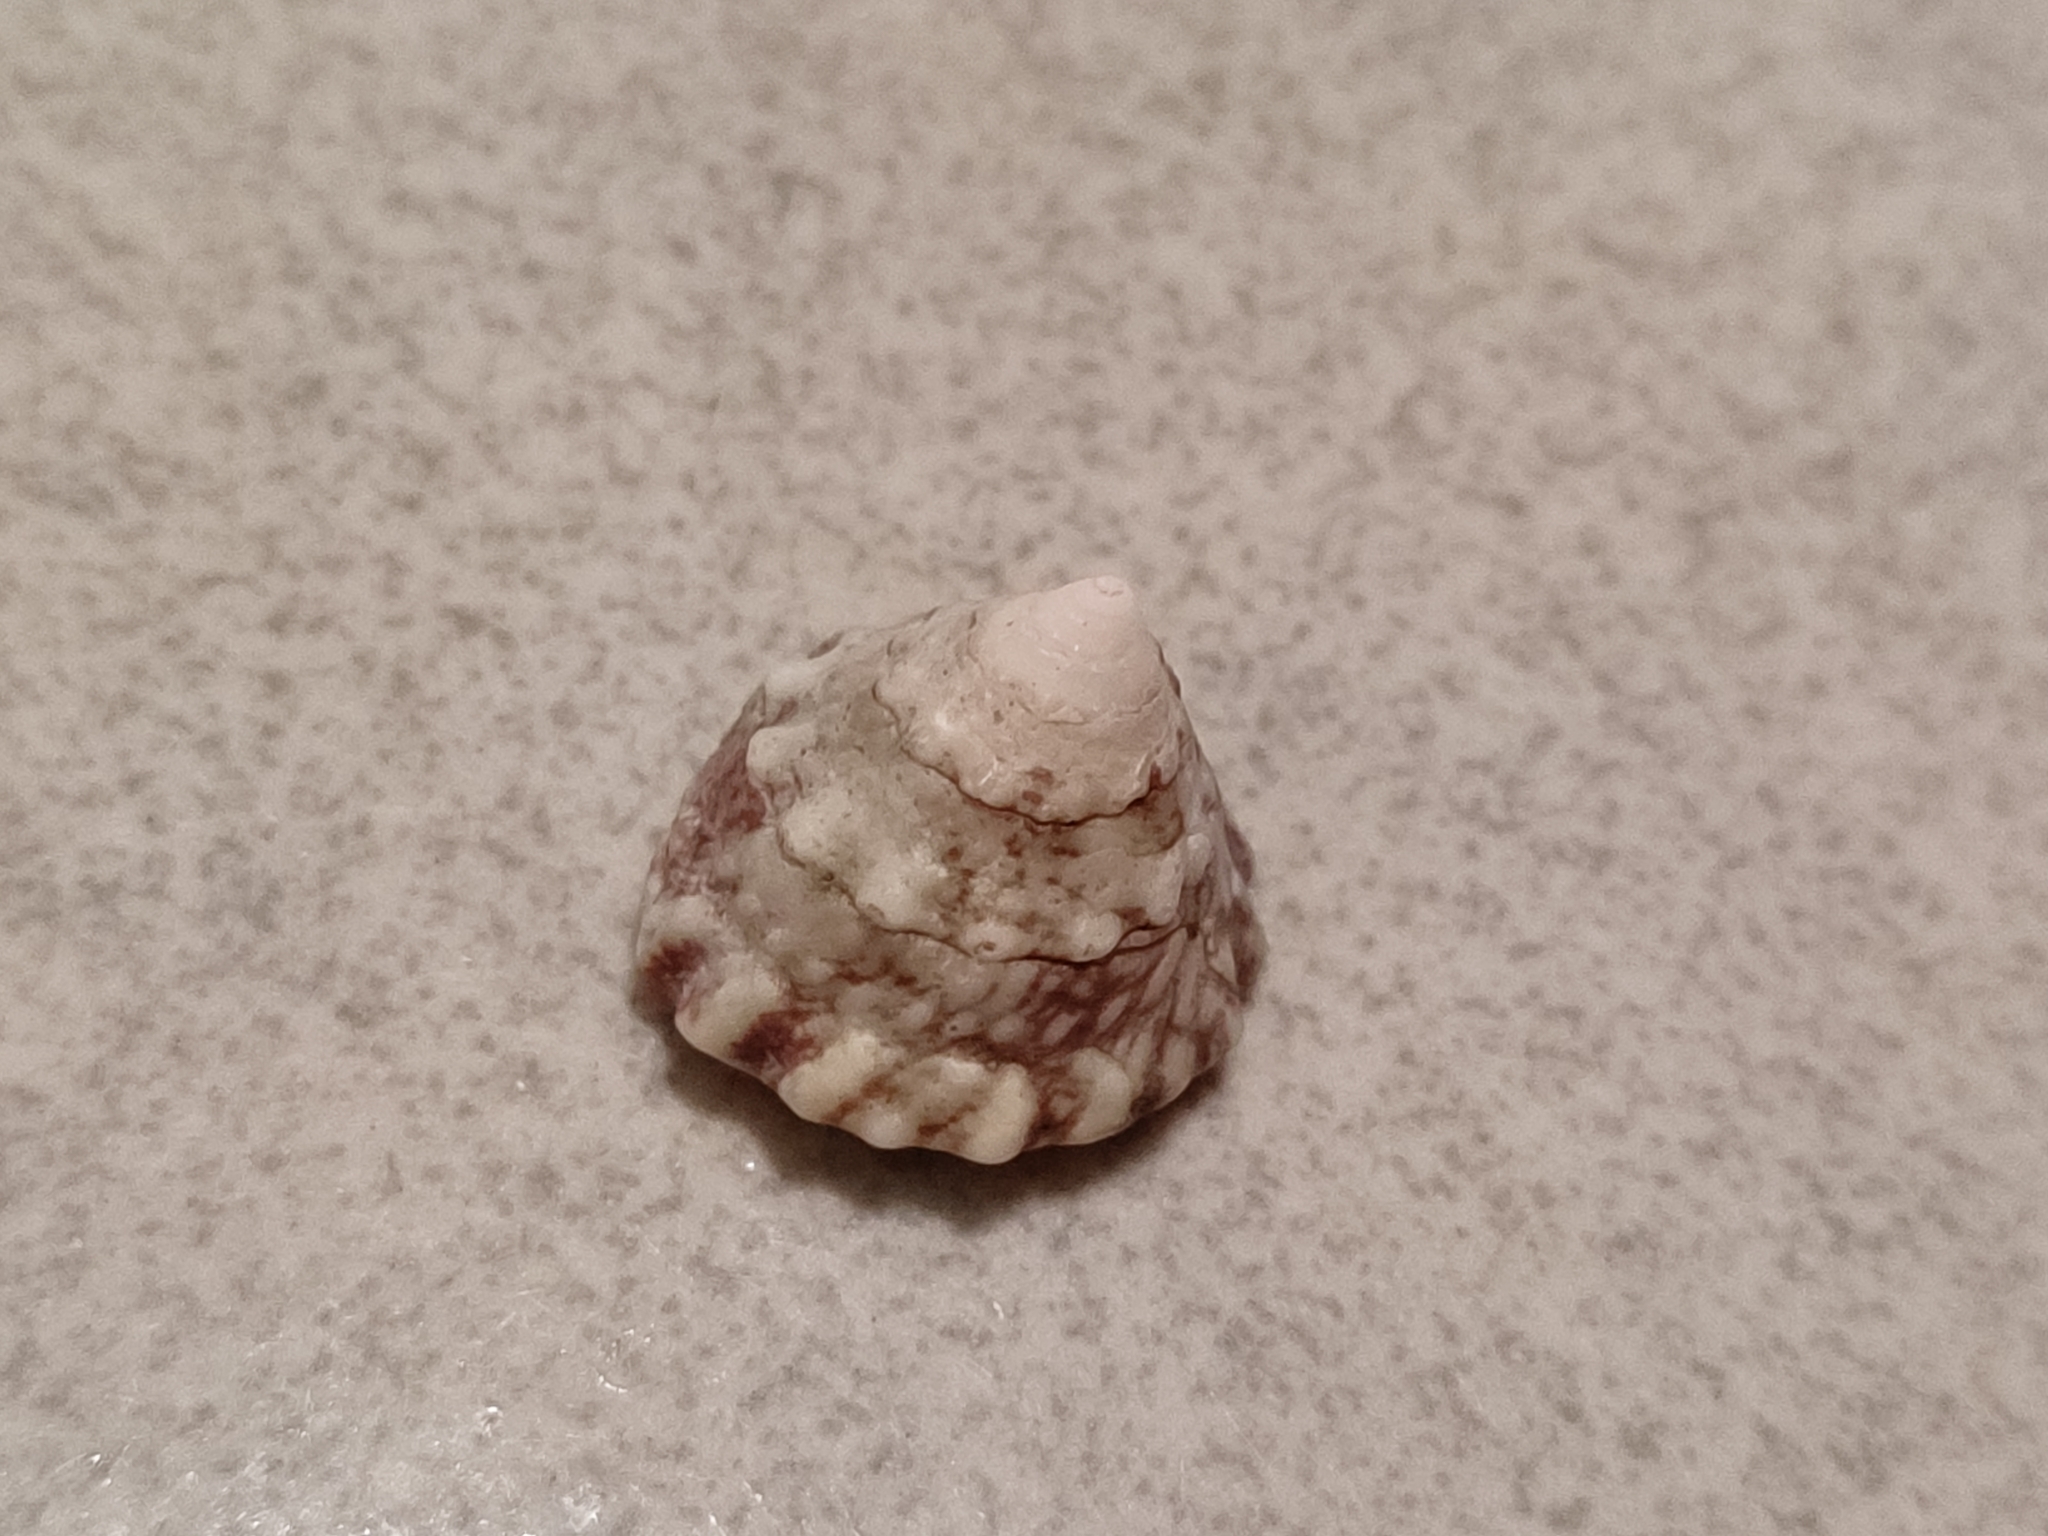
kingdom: Animalia
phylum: Mollusca
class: Gastropoda
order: Trochida
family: Trochidae
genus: Trochus
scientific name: Trochus sacellum
